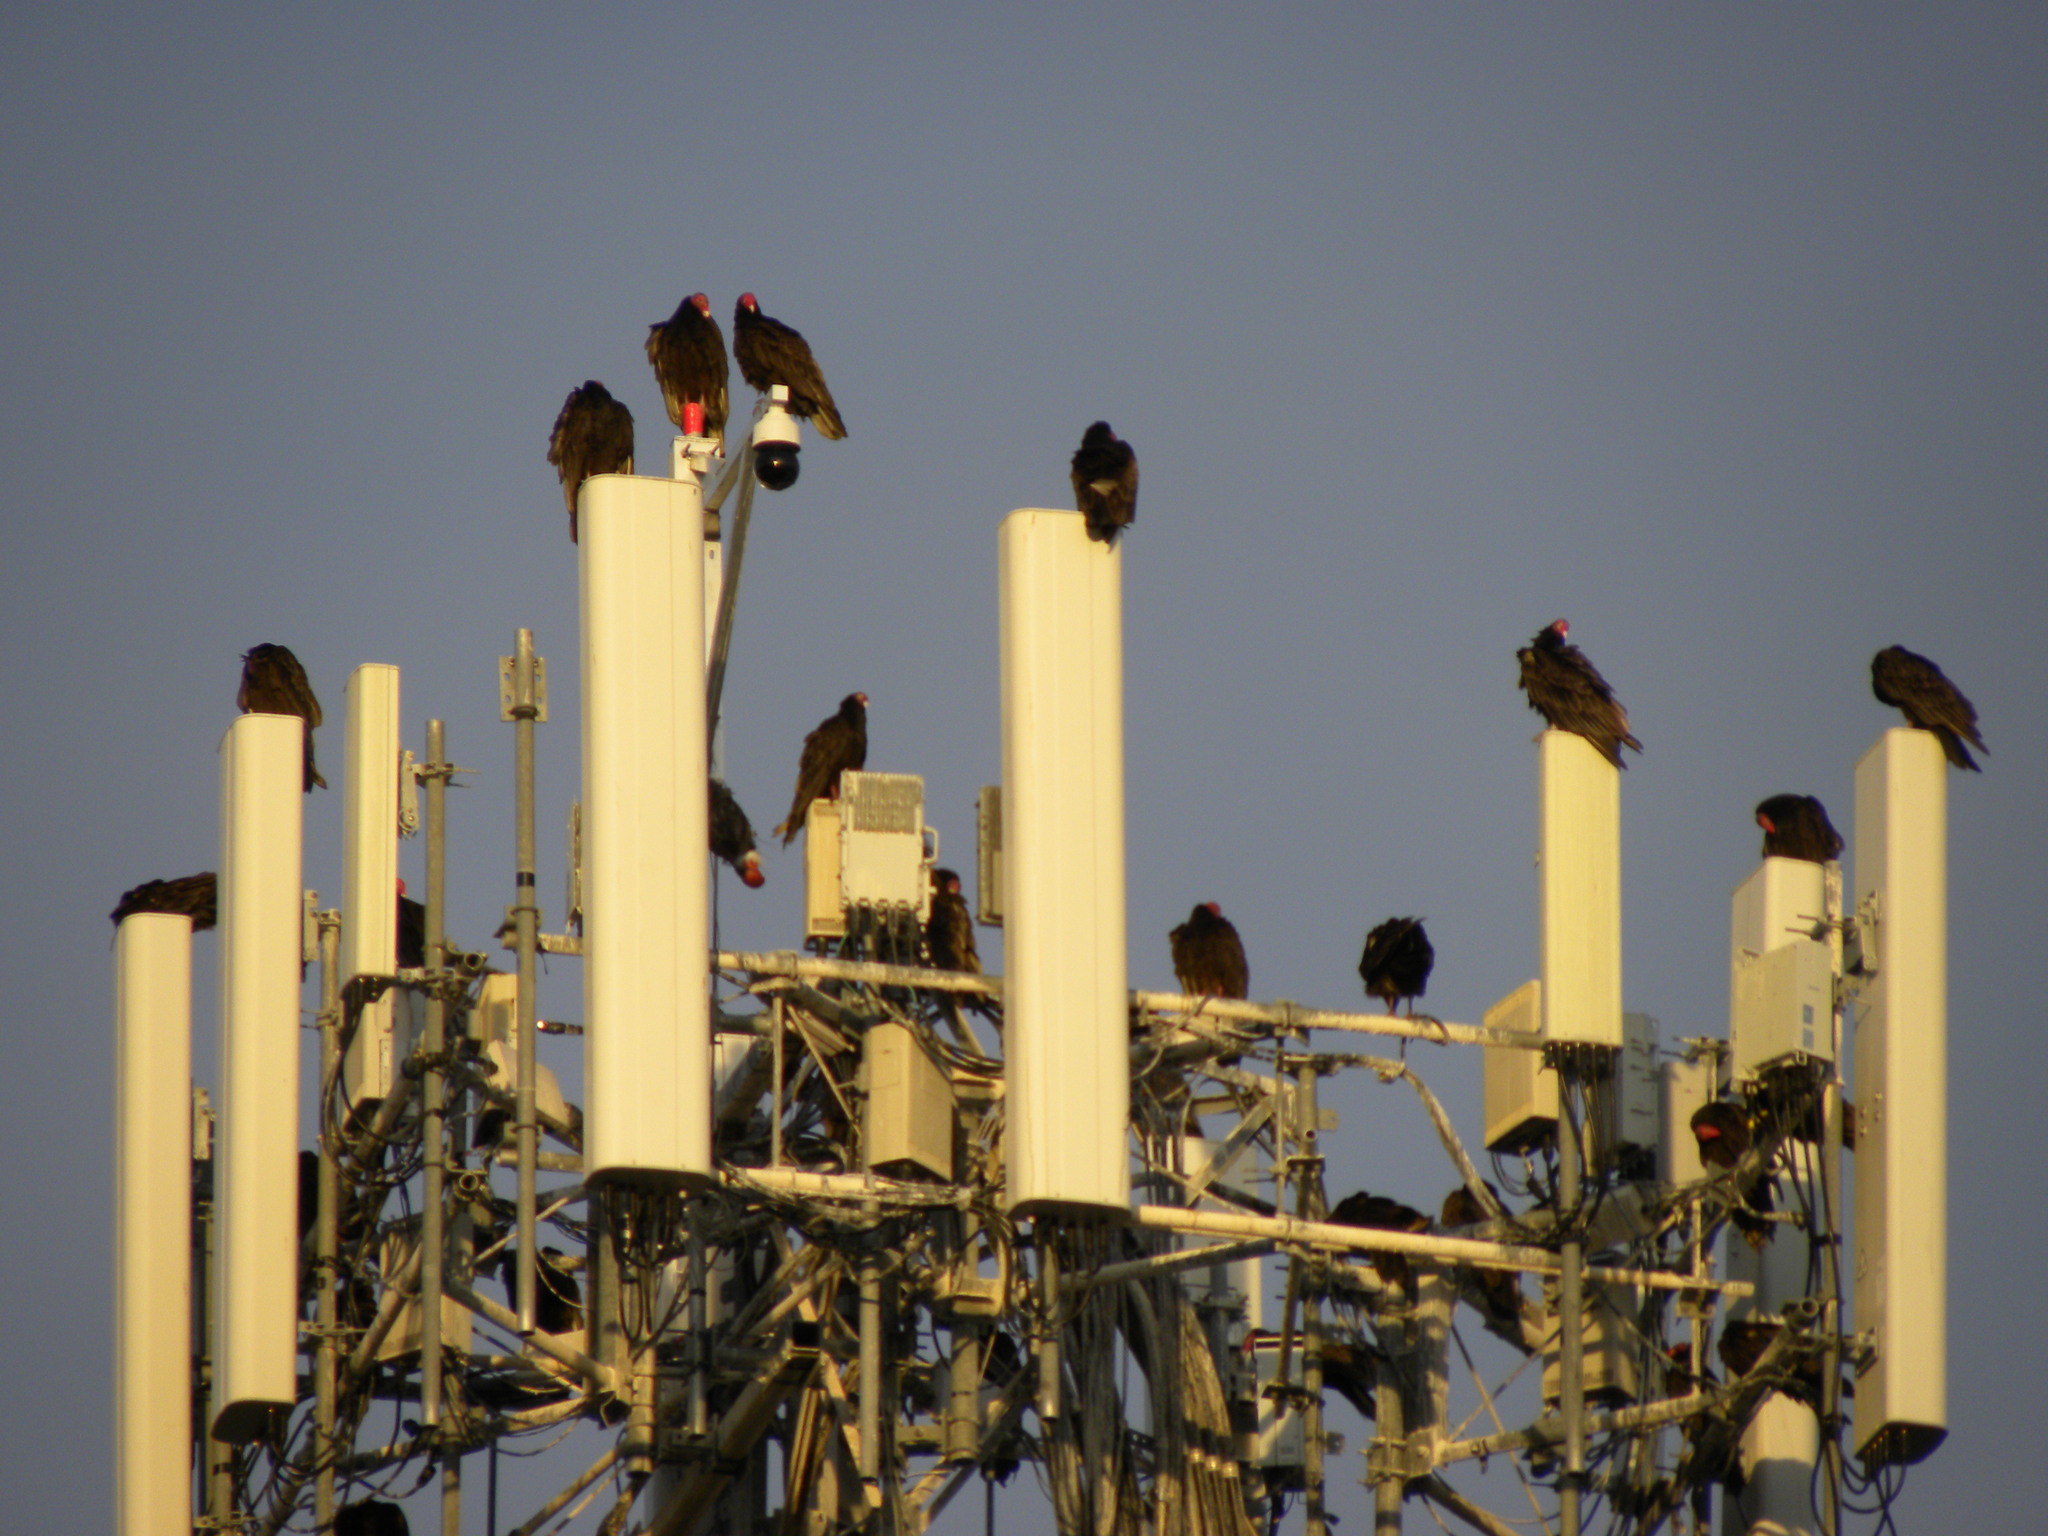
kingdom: Animalia
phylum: Chordata
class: Aves
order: Accipitriformes
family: Cathartidae
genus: Cathartes
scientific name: Cathartes aura
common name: Turkey vulture
